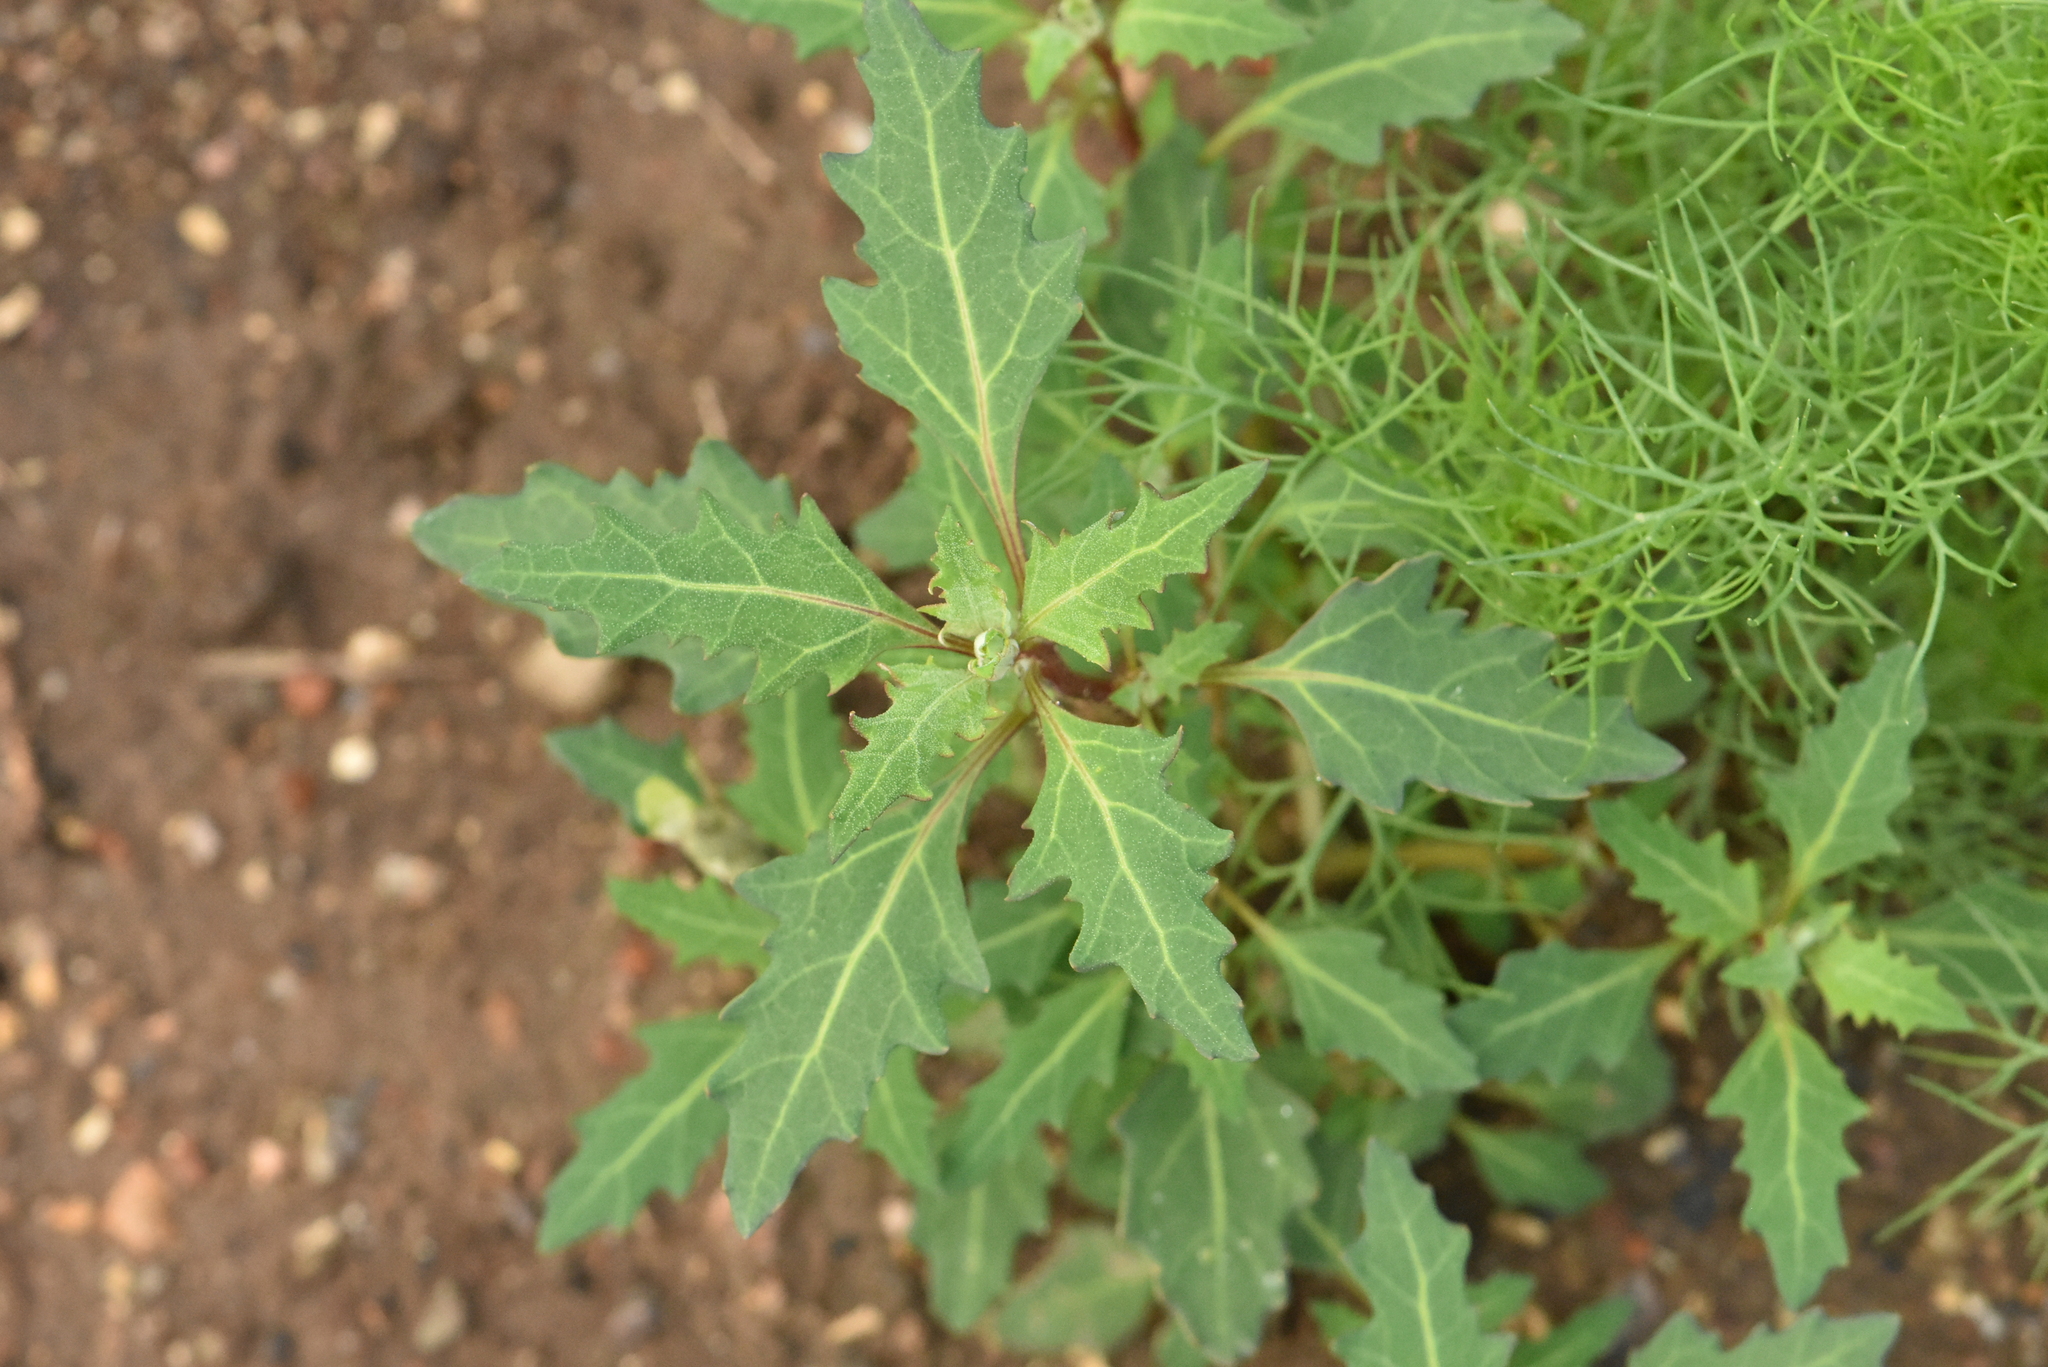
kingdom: Plantae
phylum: Tracheophyta
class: Magnoliopsida
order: Caryophyllales
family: Amaranthaceae
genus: Oxybasis
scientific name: Oxybasis glauca
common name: Glaucous goosefoot
